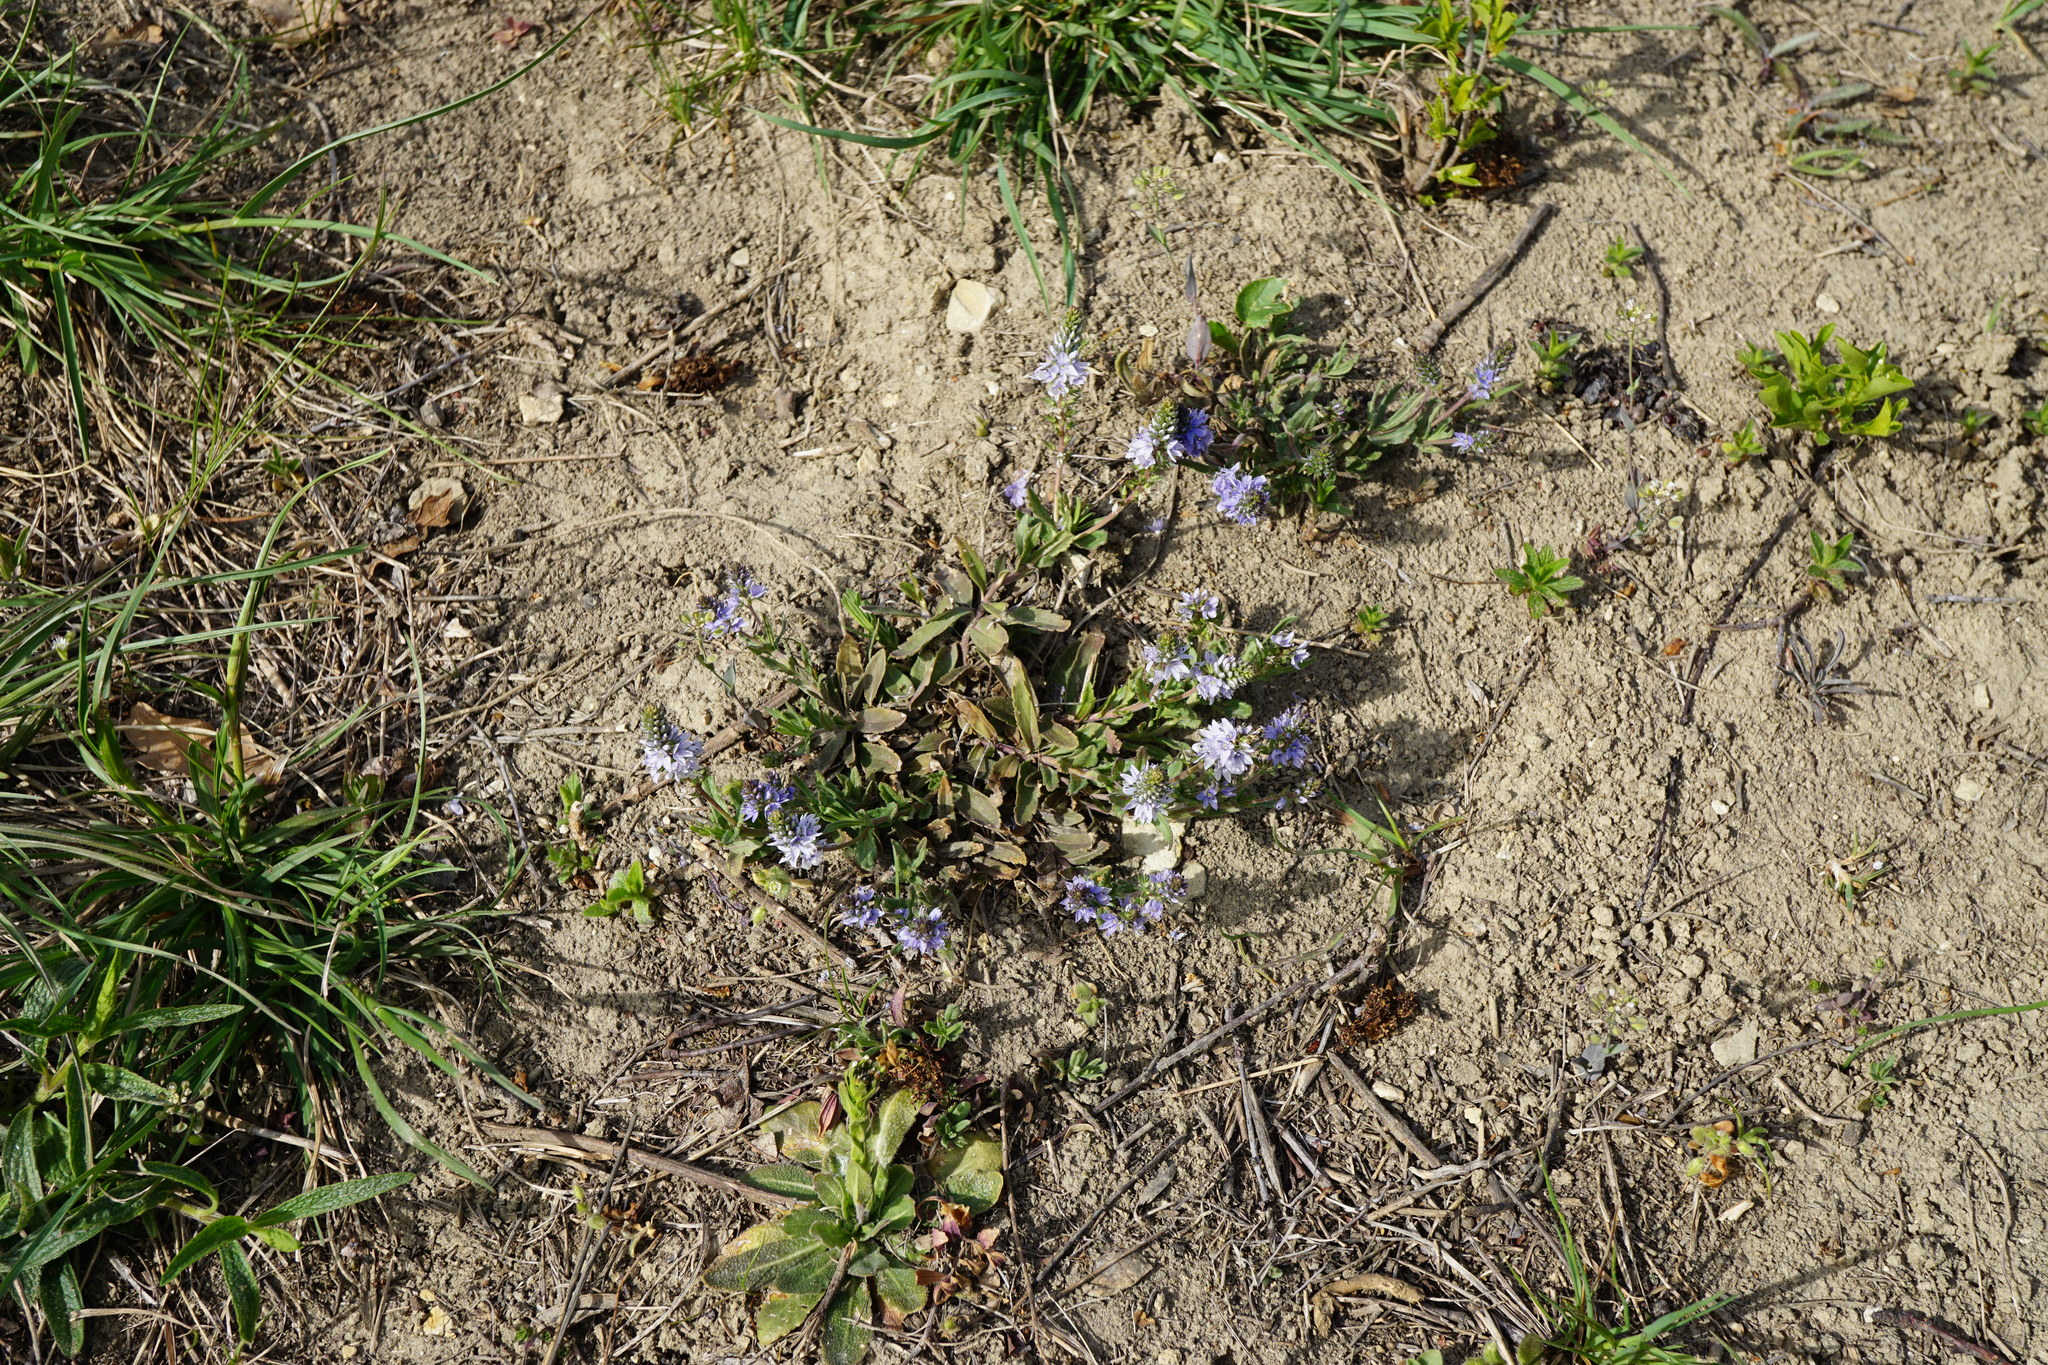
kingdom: Plantae
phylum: Tracheophyta
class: Magnoliopsida
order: Lamiales
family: Plantaginaceae
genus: Veronica
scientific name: Veronica prostrata
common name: Prostrate speedwell
